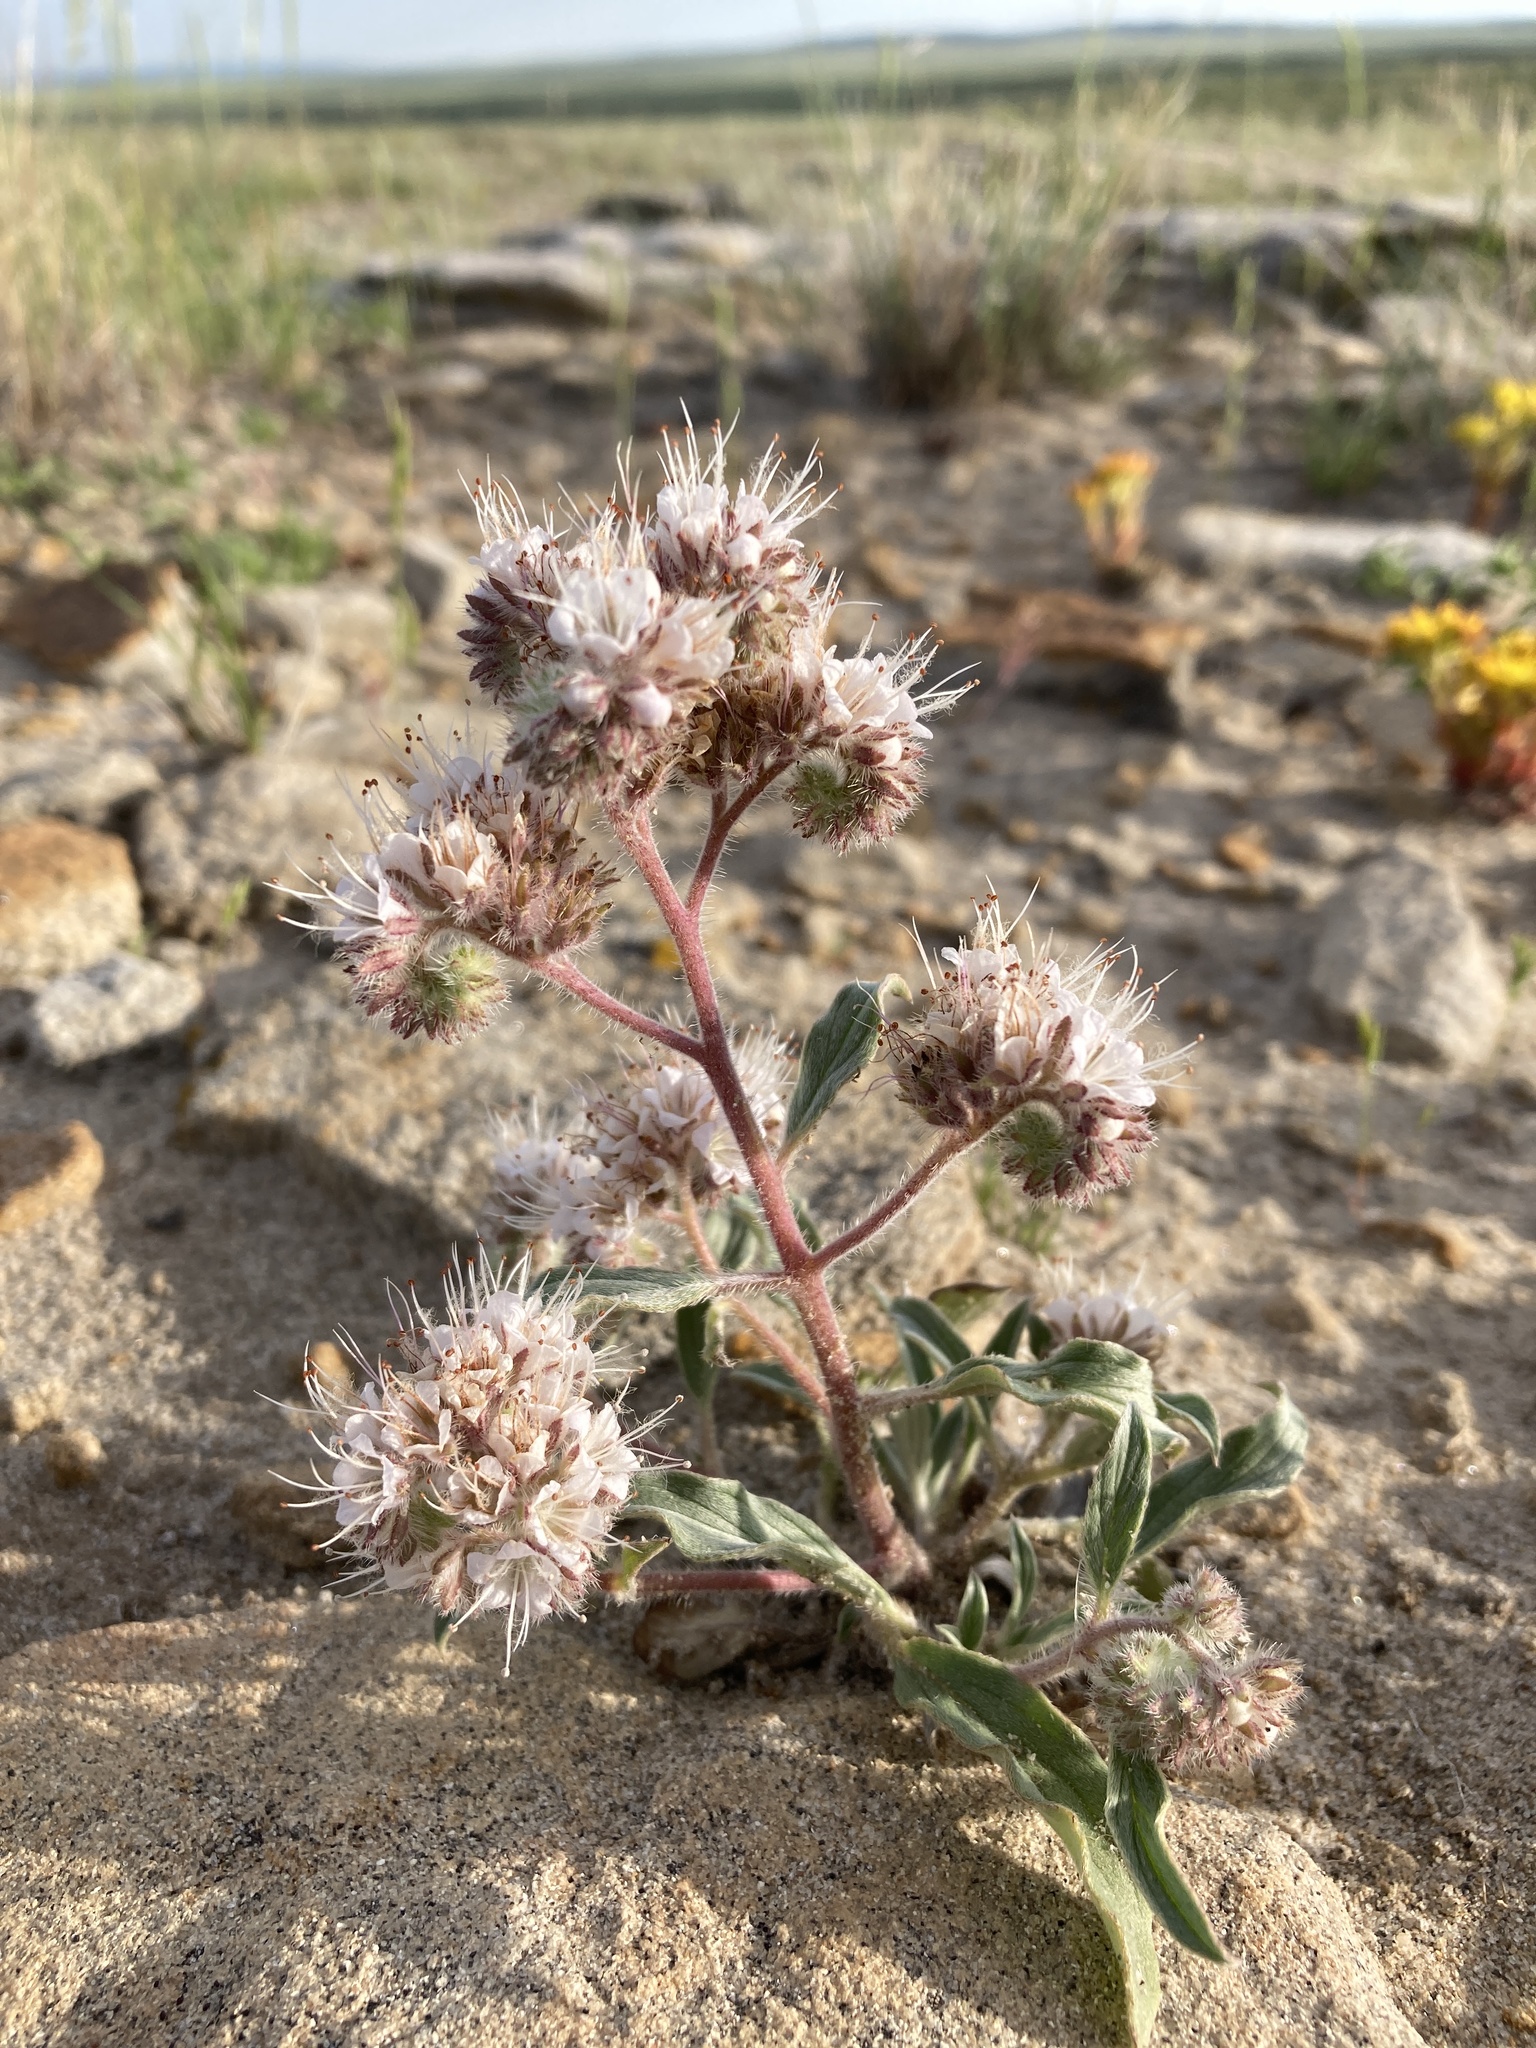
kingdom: Plantae
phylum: Tracheophyta
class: Magnoliopsida
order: Boraginales
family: Hydrophyllaceae
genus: Phacelia
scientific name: Phacelia hastata
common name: Silver-leaved phacelia
